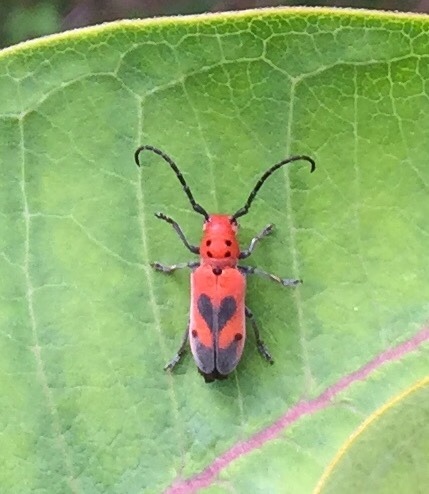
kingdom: Animalia
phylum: Arthropoda
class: Insecta
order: Coleoptera
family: Cerambycidae
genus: Tetraopes
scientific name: Tetraopes melanurus
